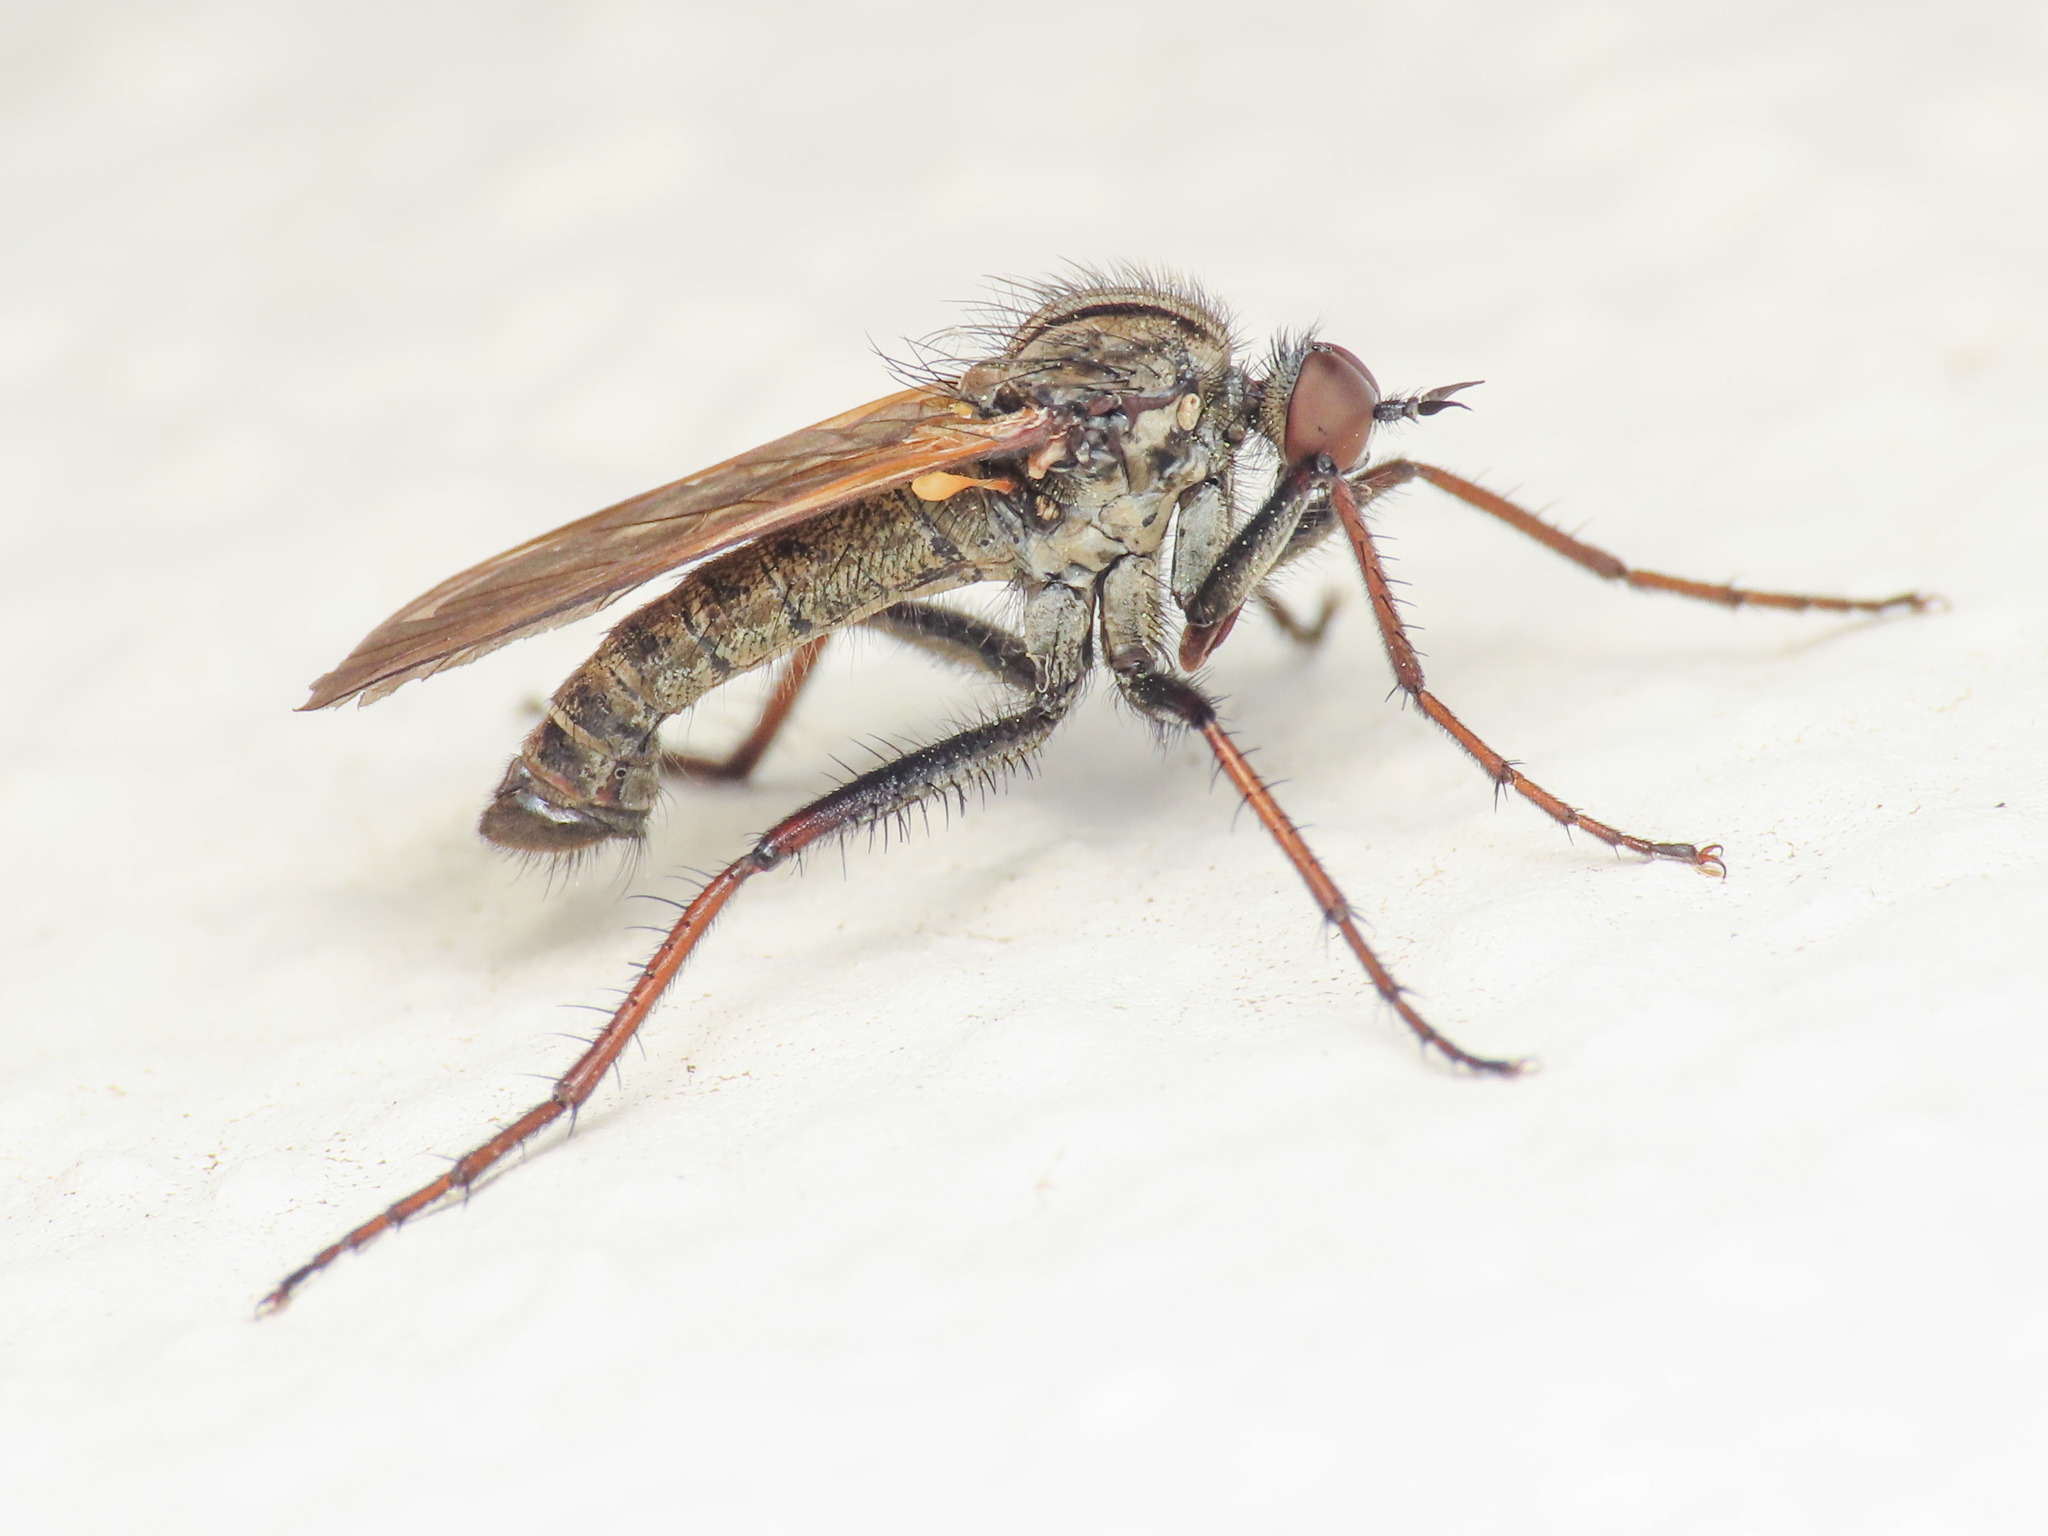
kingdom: Animalia
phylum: Arthropoda
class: Insecta
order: Diptera
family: Empididae
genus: Empis
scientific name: Empis tessellata
